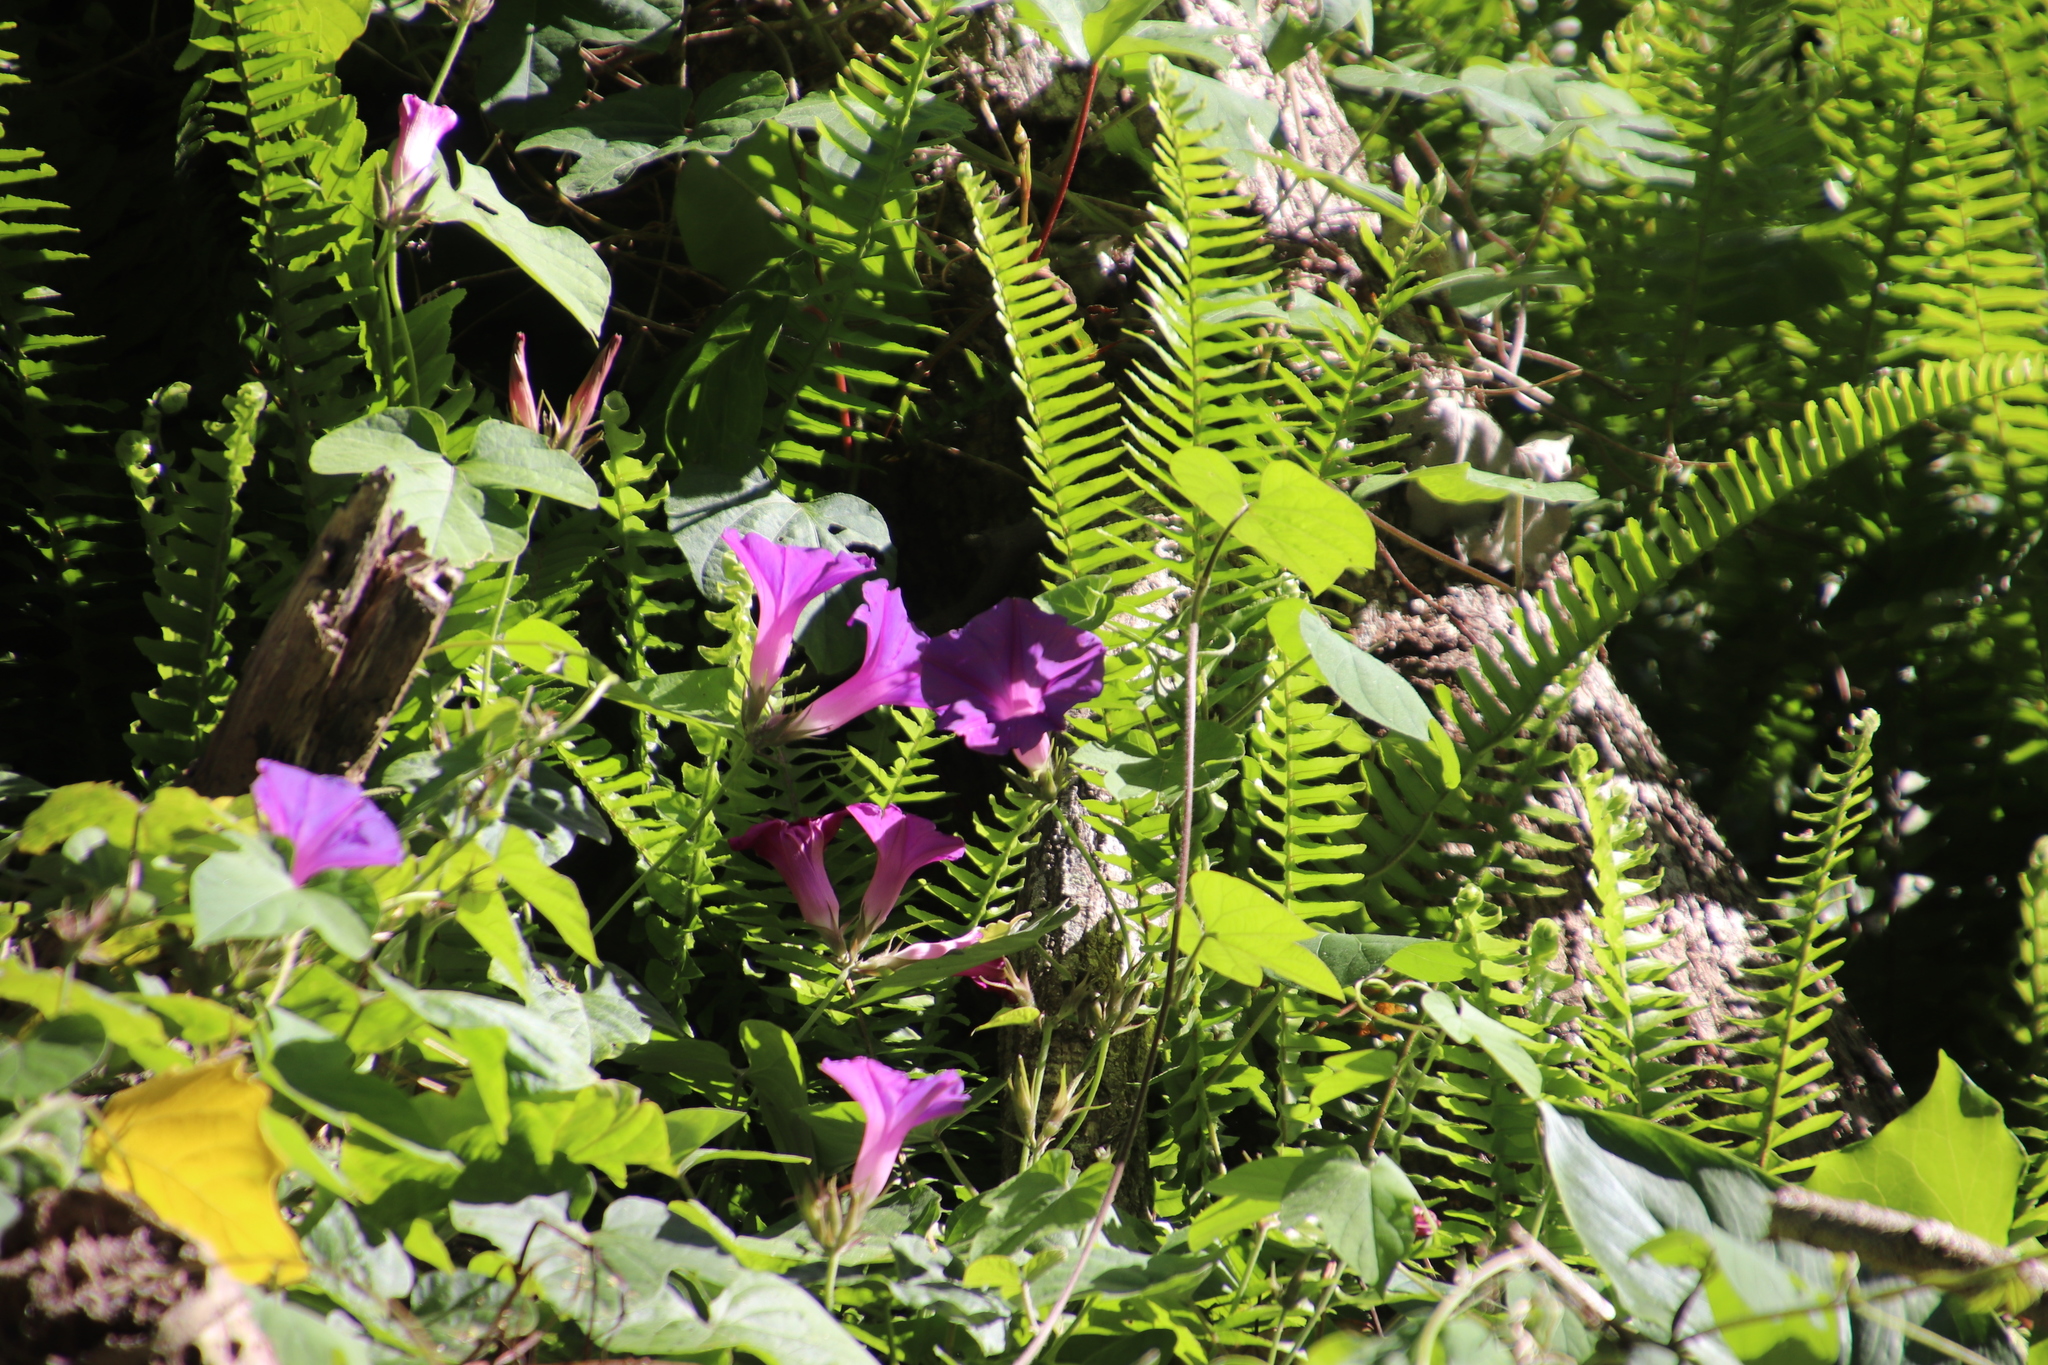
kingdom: Plantae
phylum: Tracheophyta
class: Polypodiopsida
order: Polypodiales
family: Nephrolepidaceae
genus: Nephrolepis
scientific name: Nephrolepis cordifolia
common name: Narrow swordfern
